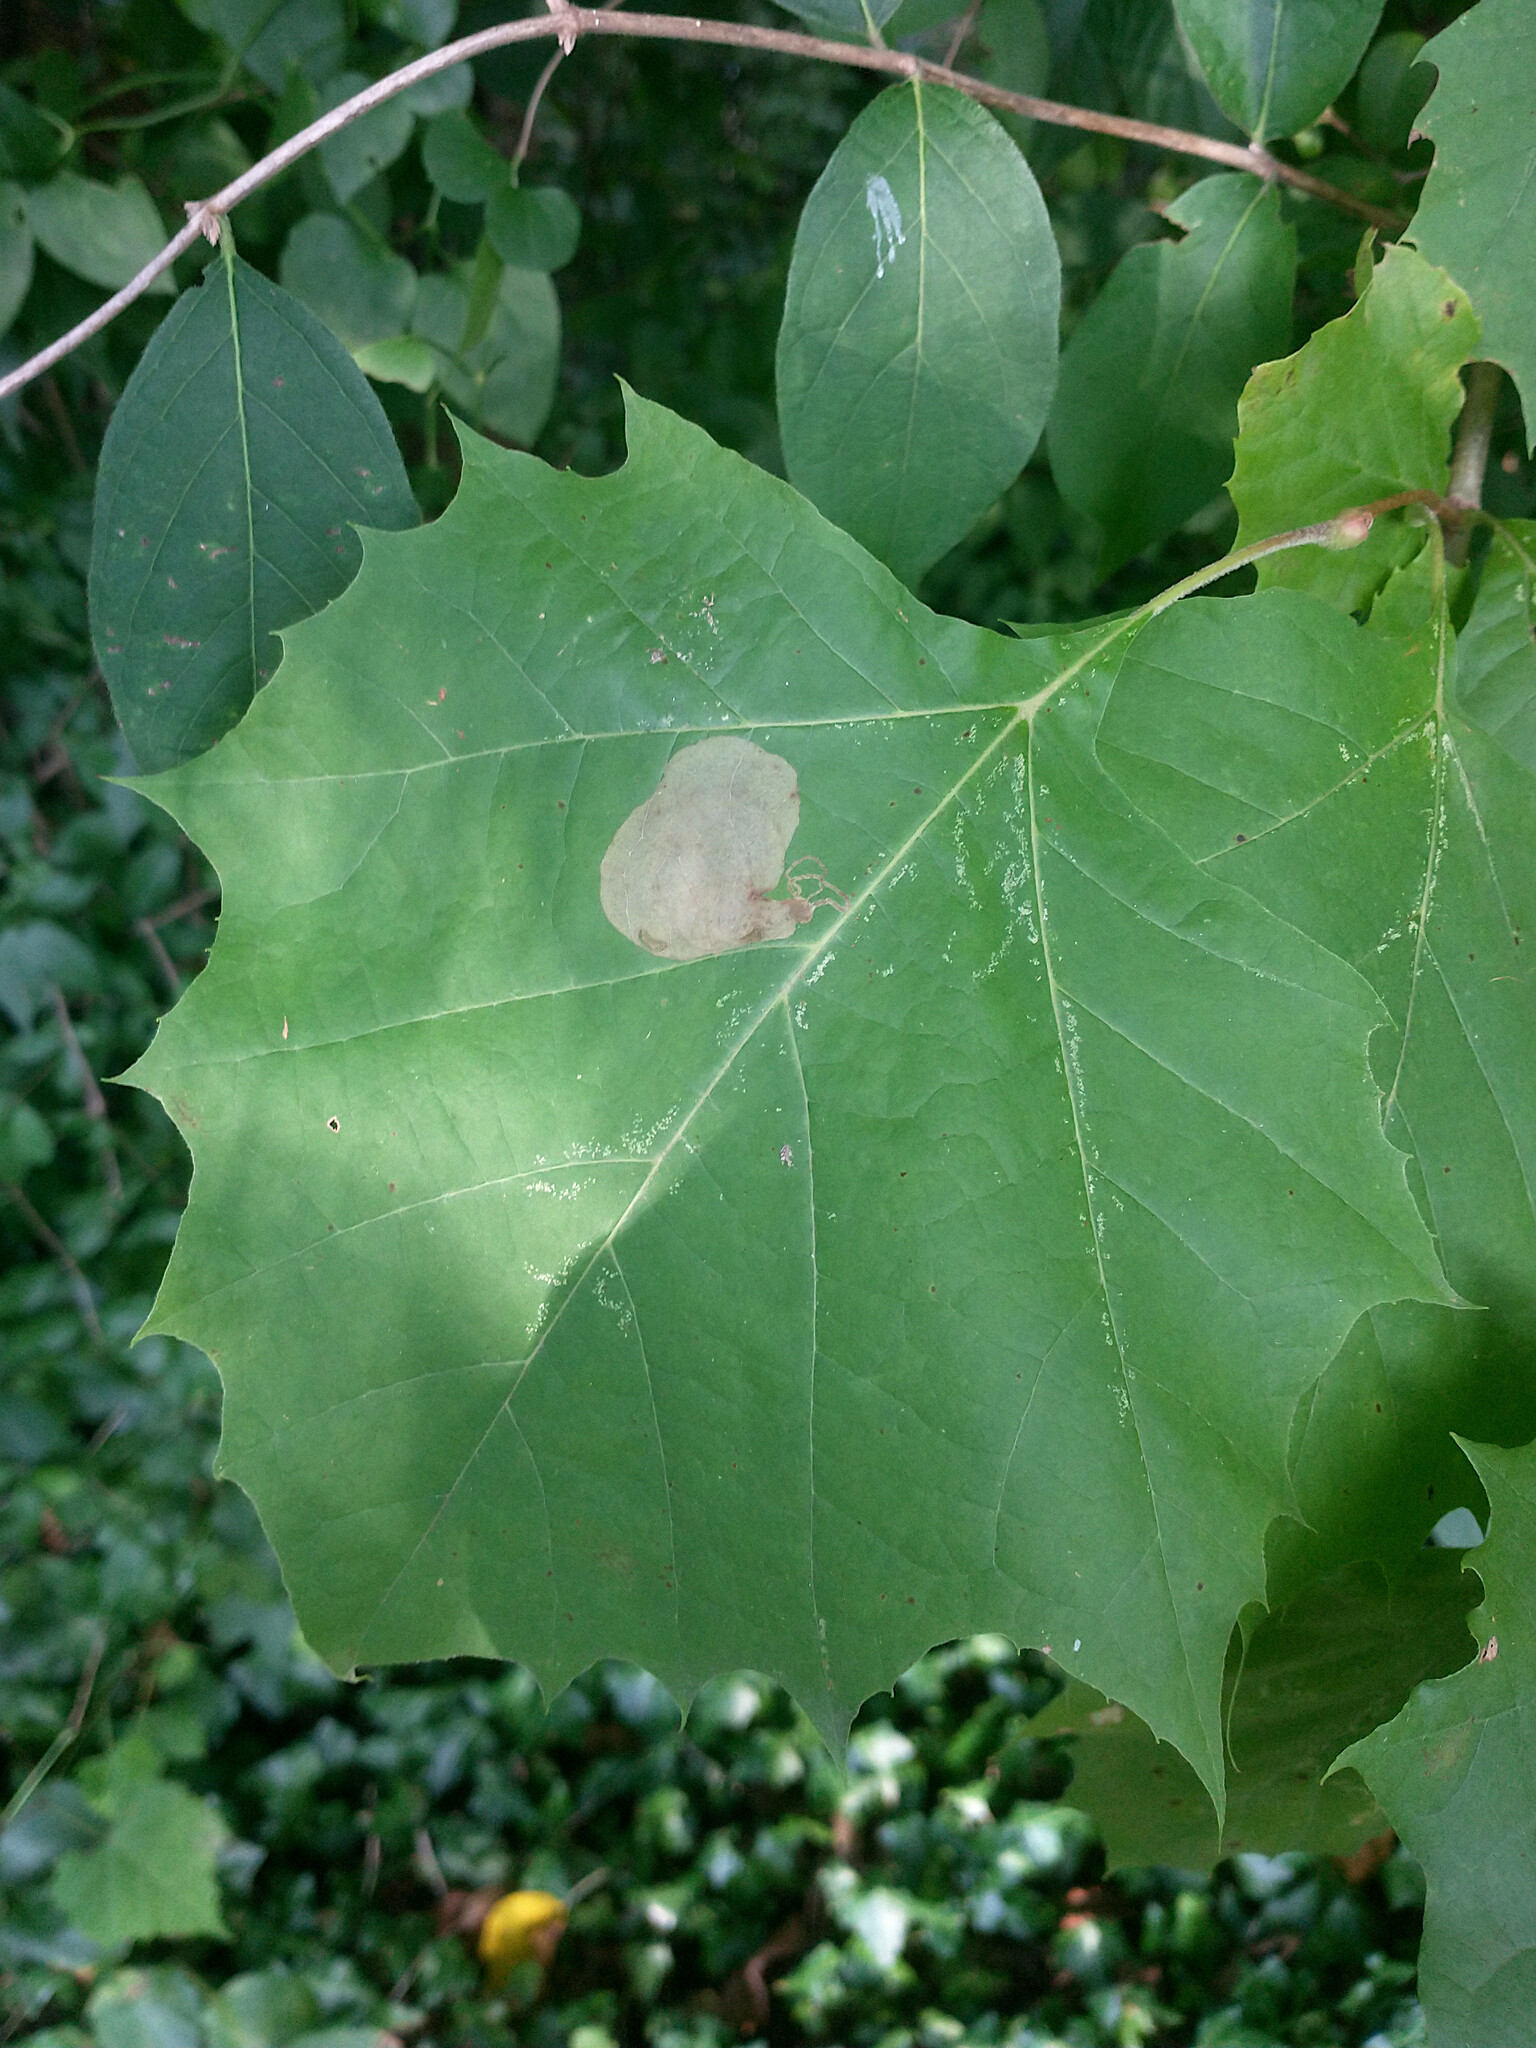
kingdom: Animalia
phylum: Arthropoda
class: Insecta
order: Lepidoptera
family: Nepticulidae
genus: Ectoedemia
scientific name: Ectoedemia platanella
